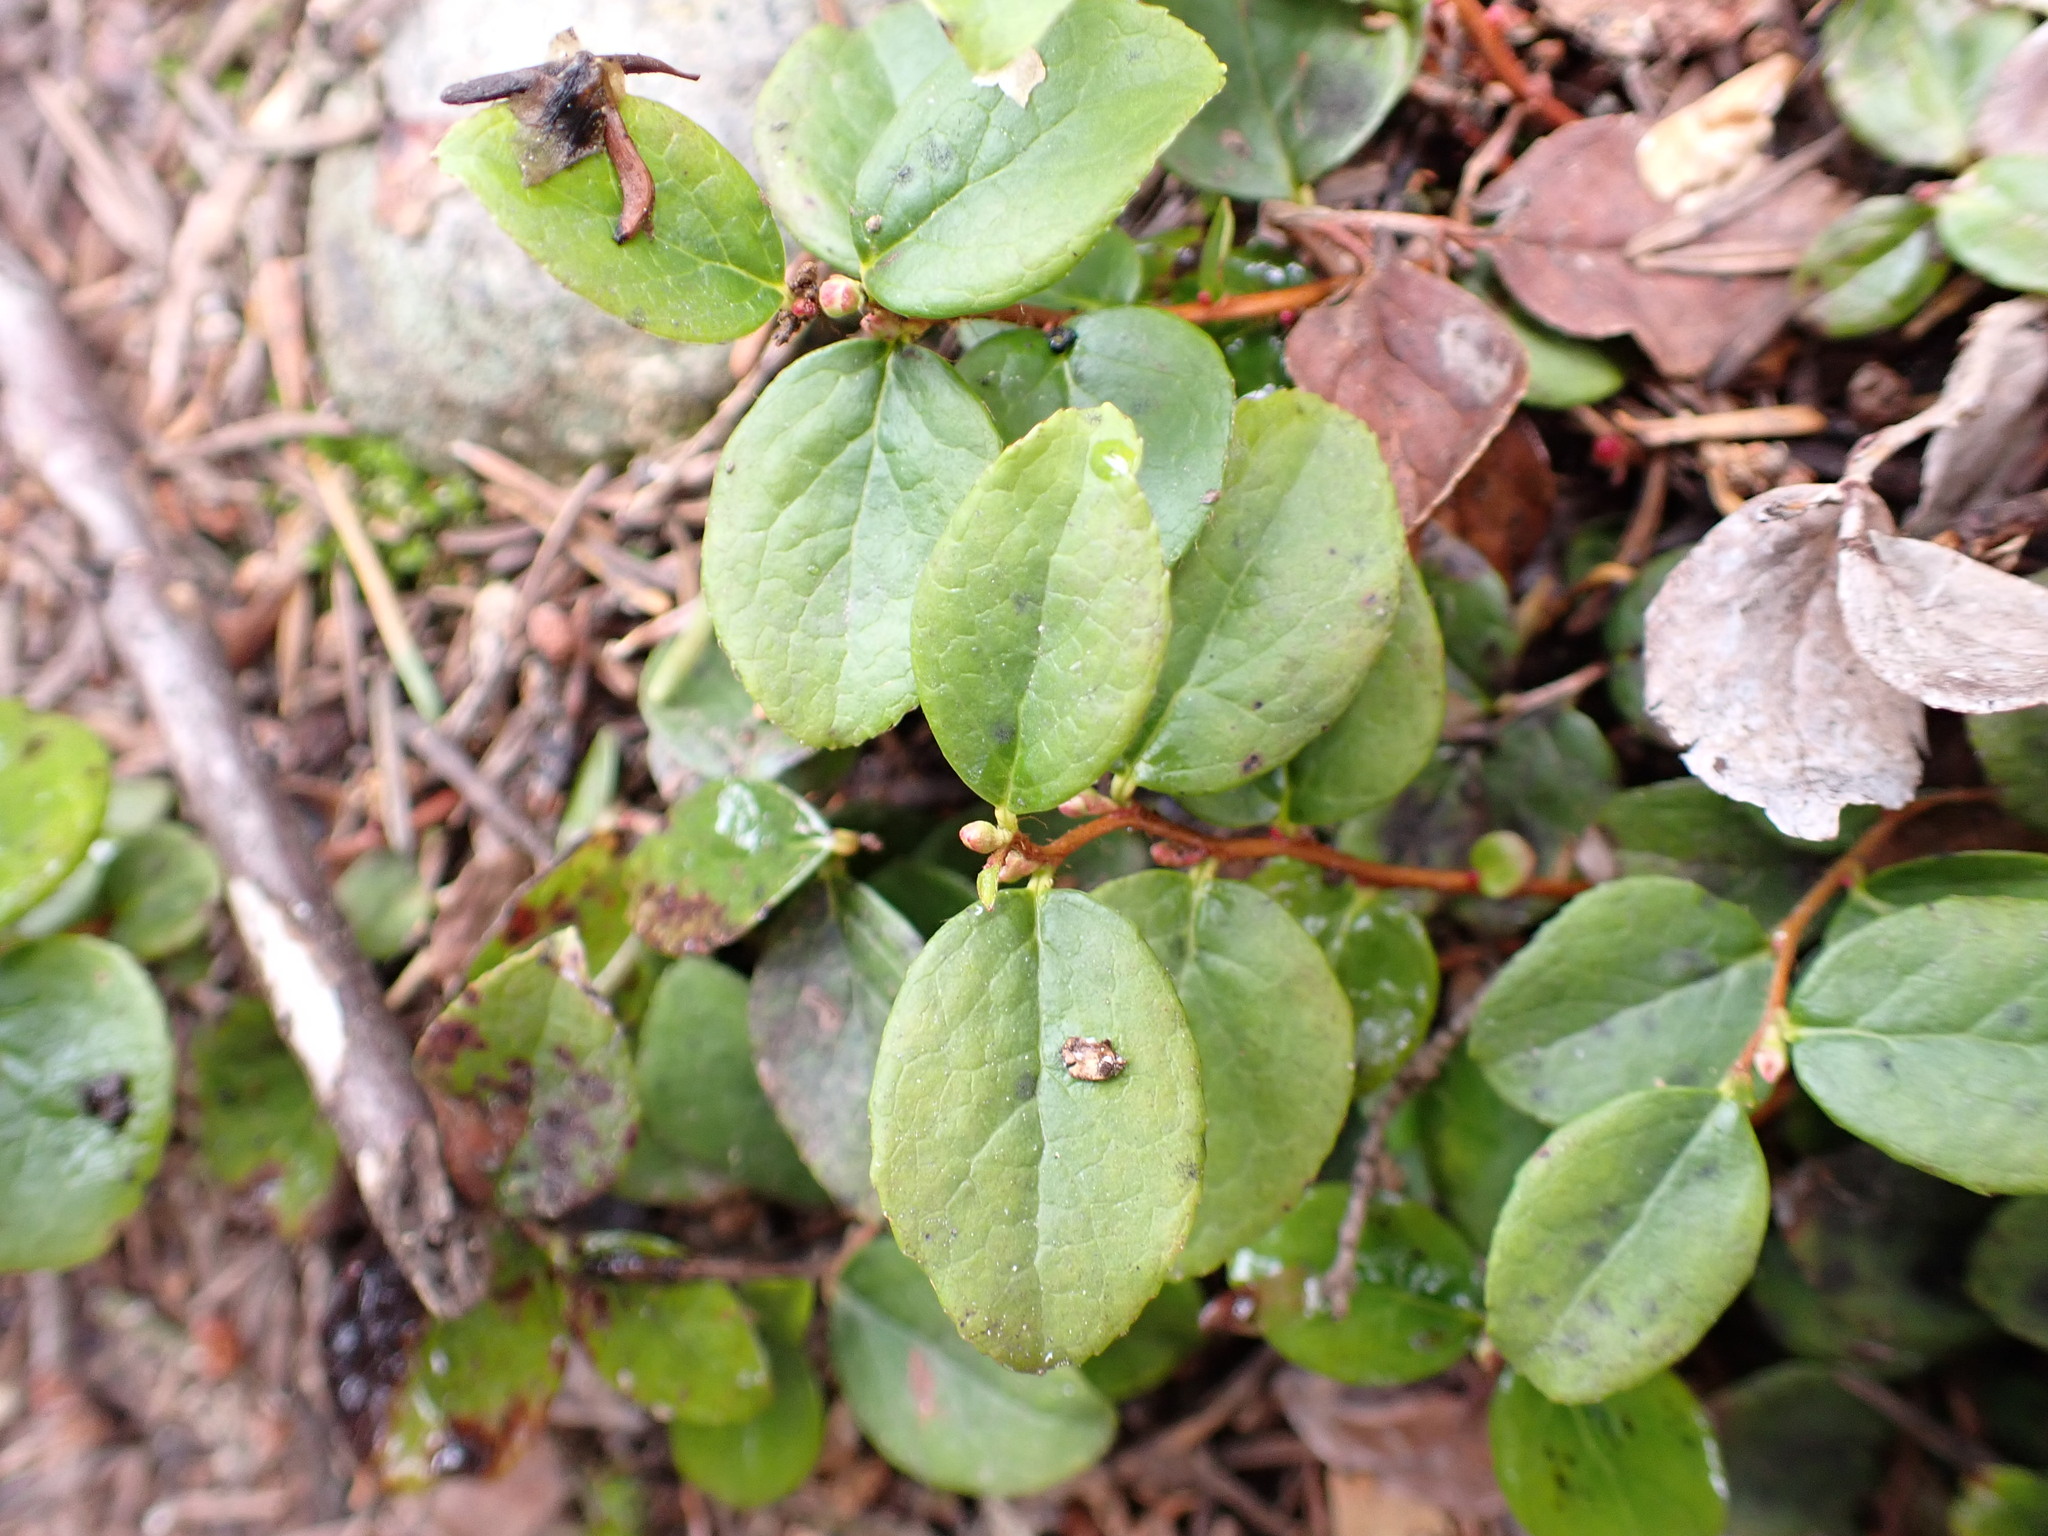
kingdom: Plantae
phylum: Tracheophyta
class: Magnoliopsida
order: Ericales
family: Ericaceae
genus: Gaultheria
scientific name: Gaultheria ovatifolia
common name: Oregon wintergreen
